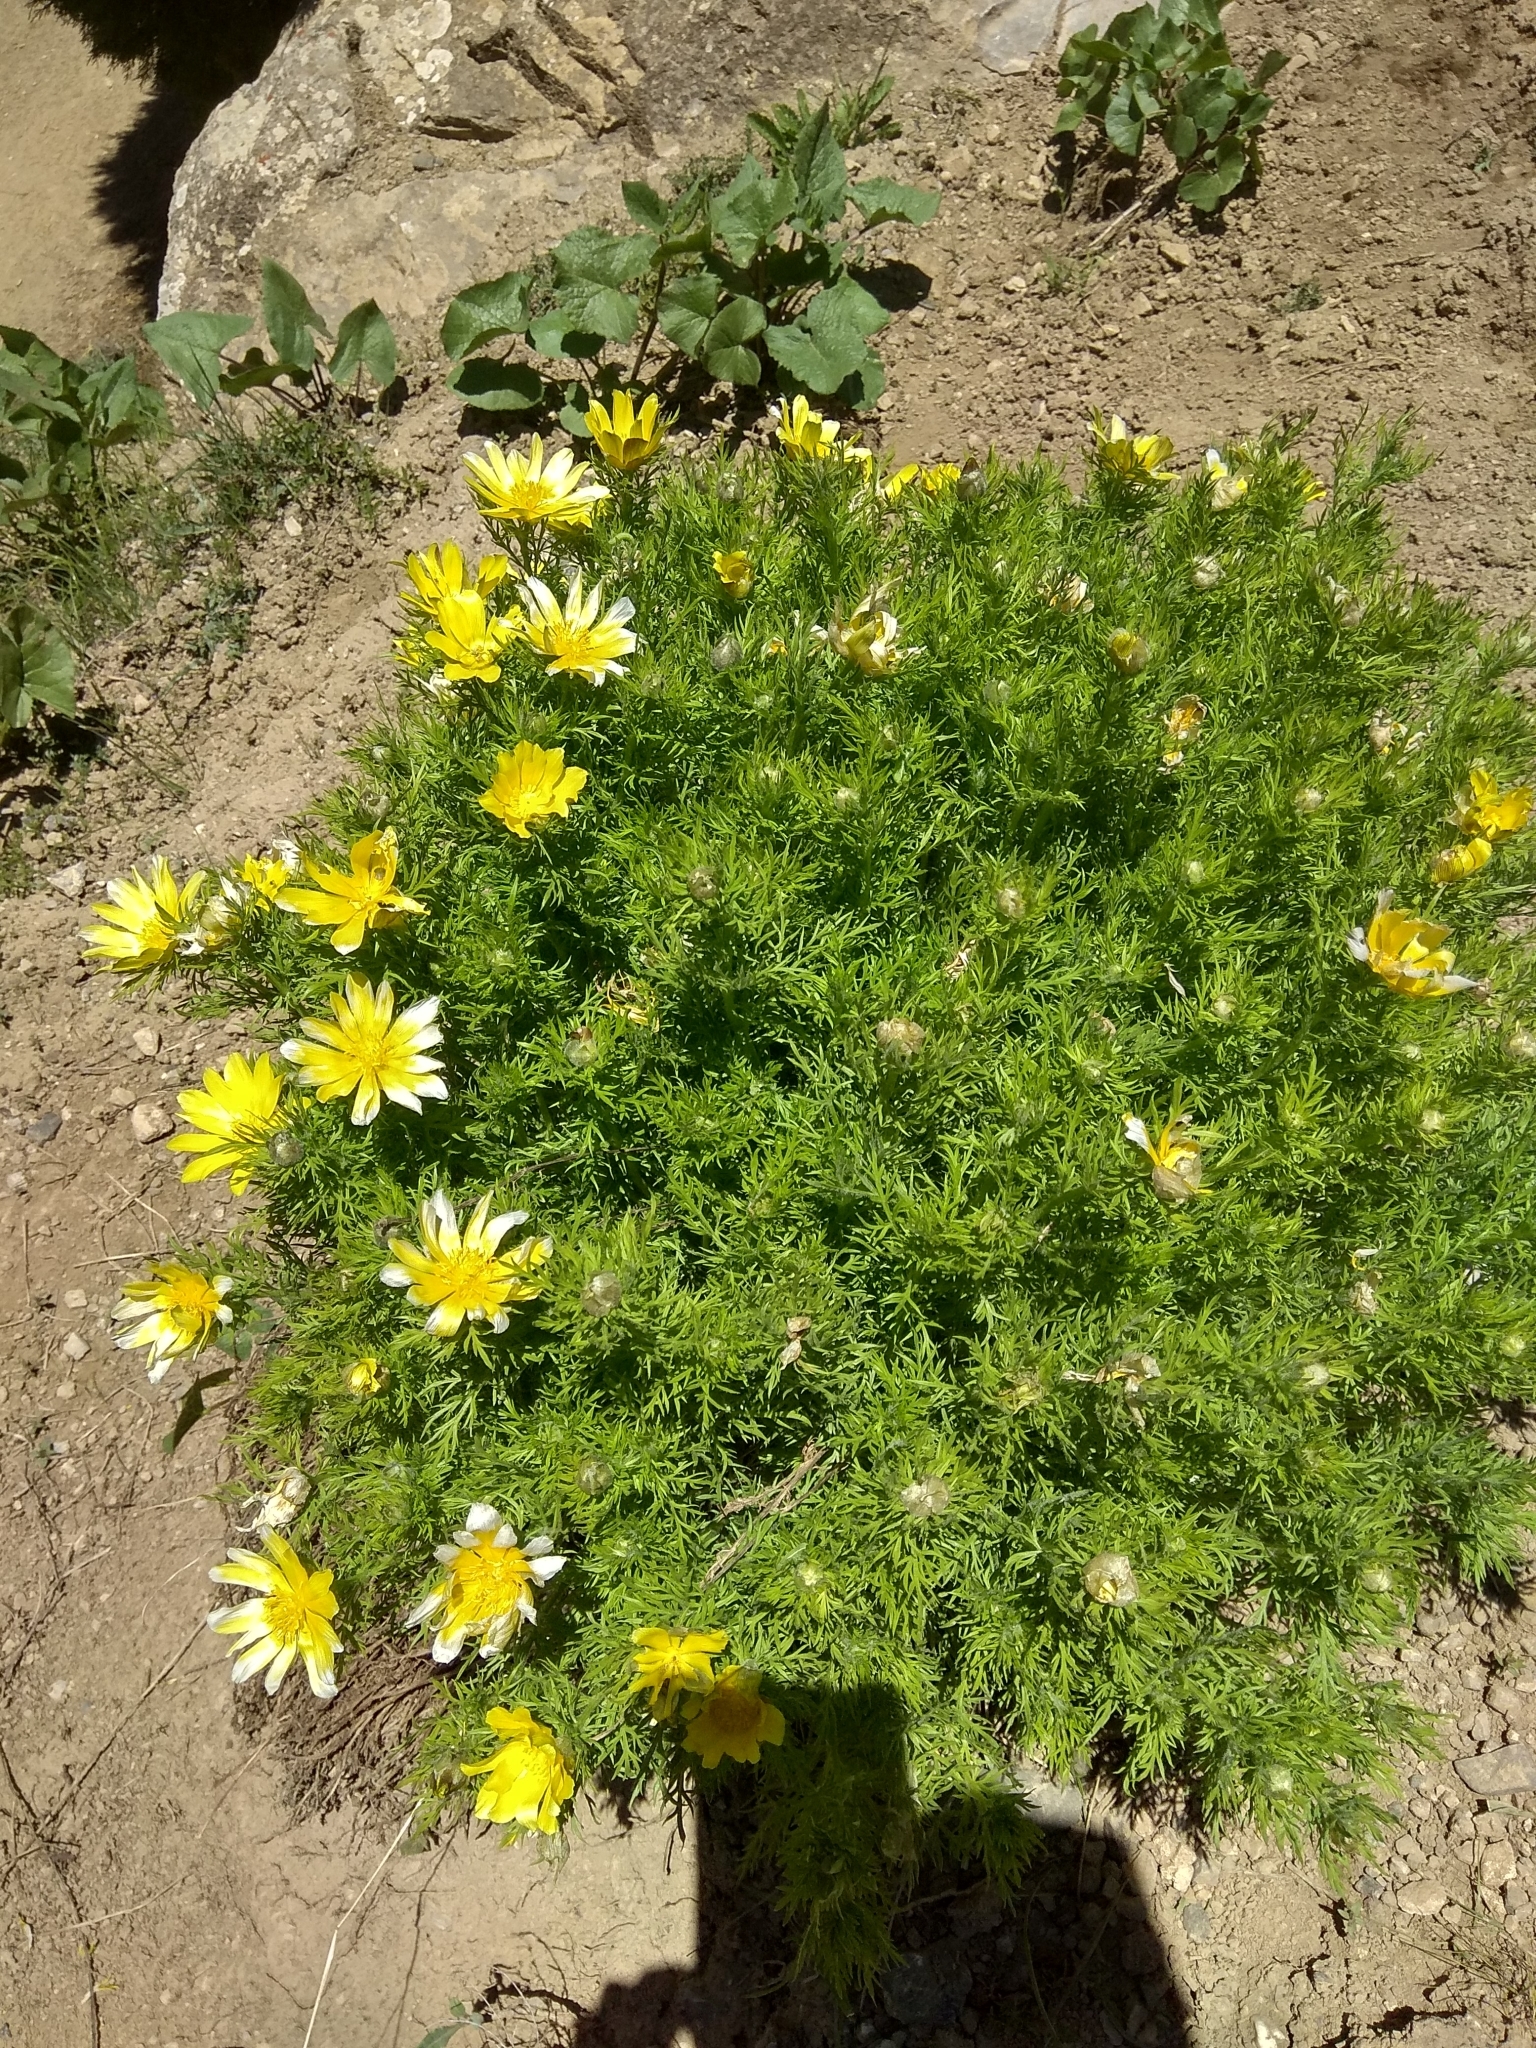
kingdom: Plantae
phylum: Tracheophyta
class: Magnoliopsida
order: Ranunculales
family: Ranunculaceae
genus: Adonis
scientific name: Adonis turkestanica
